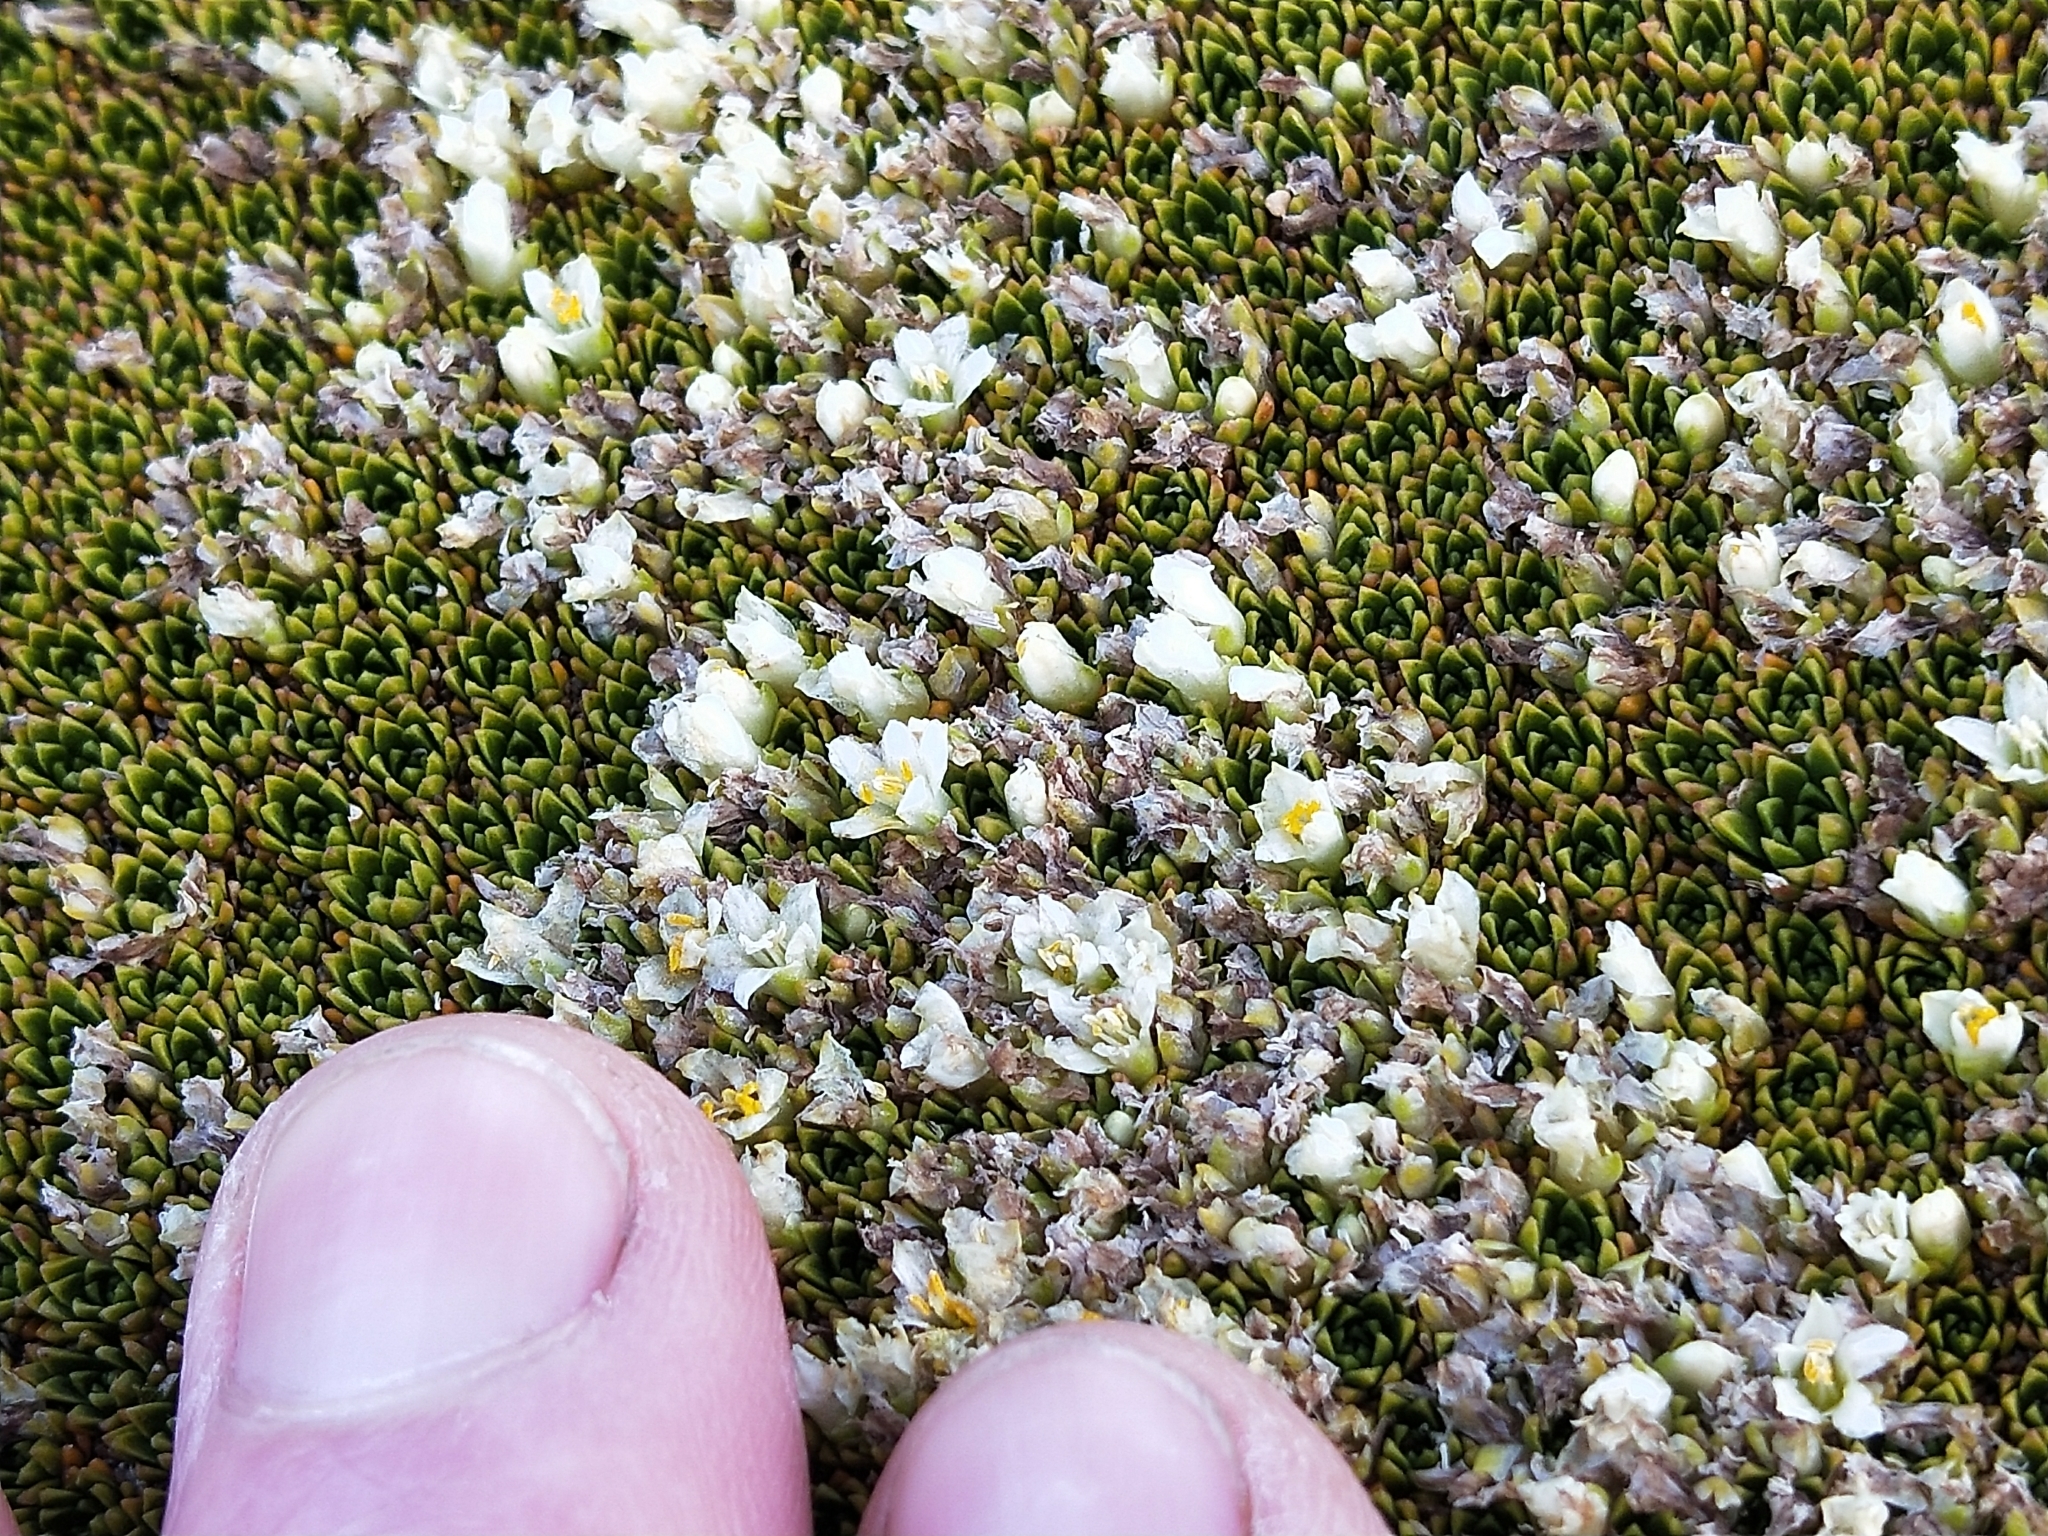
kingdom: Plantae
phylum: Tracheophyta
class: Magnoliopsida
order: Caryophyllales
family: Montiaceae
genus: Hectorella
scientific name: Hectorella caespitosa
